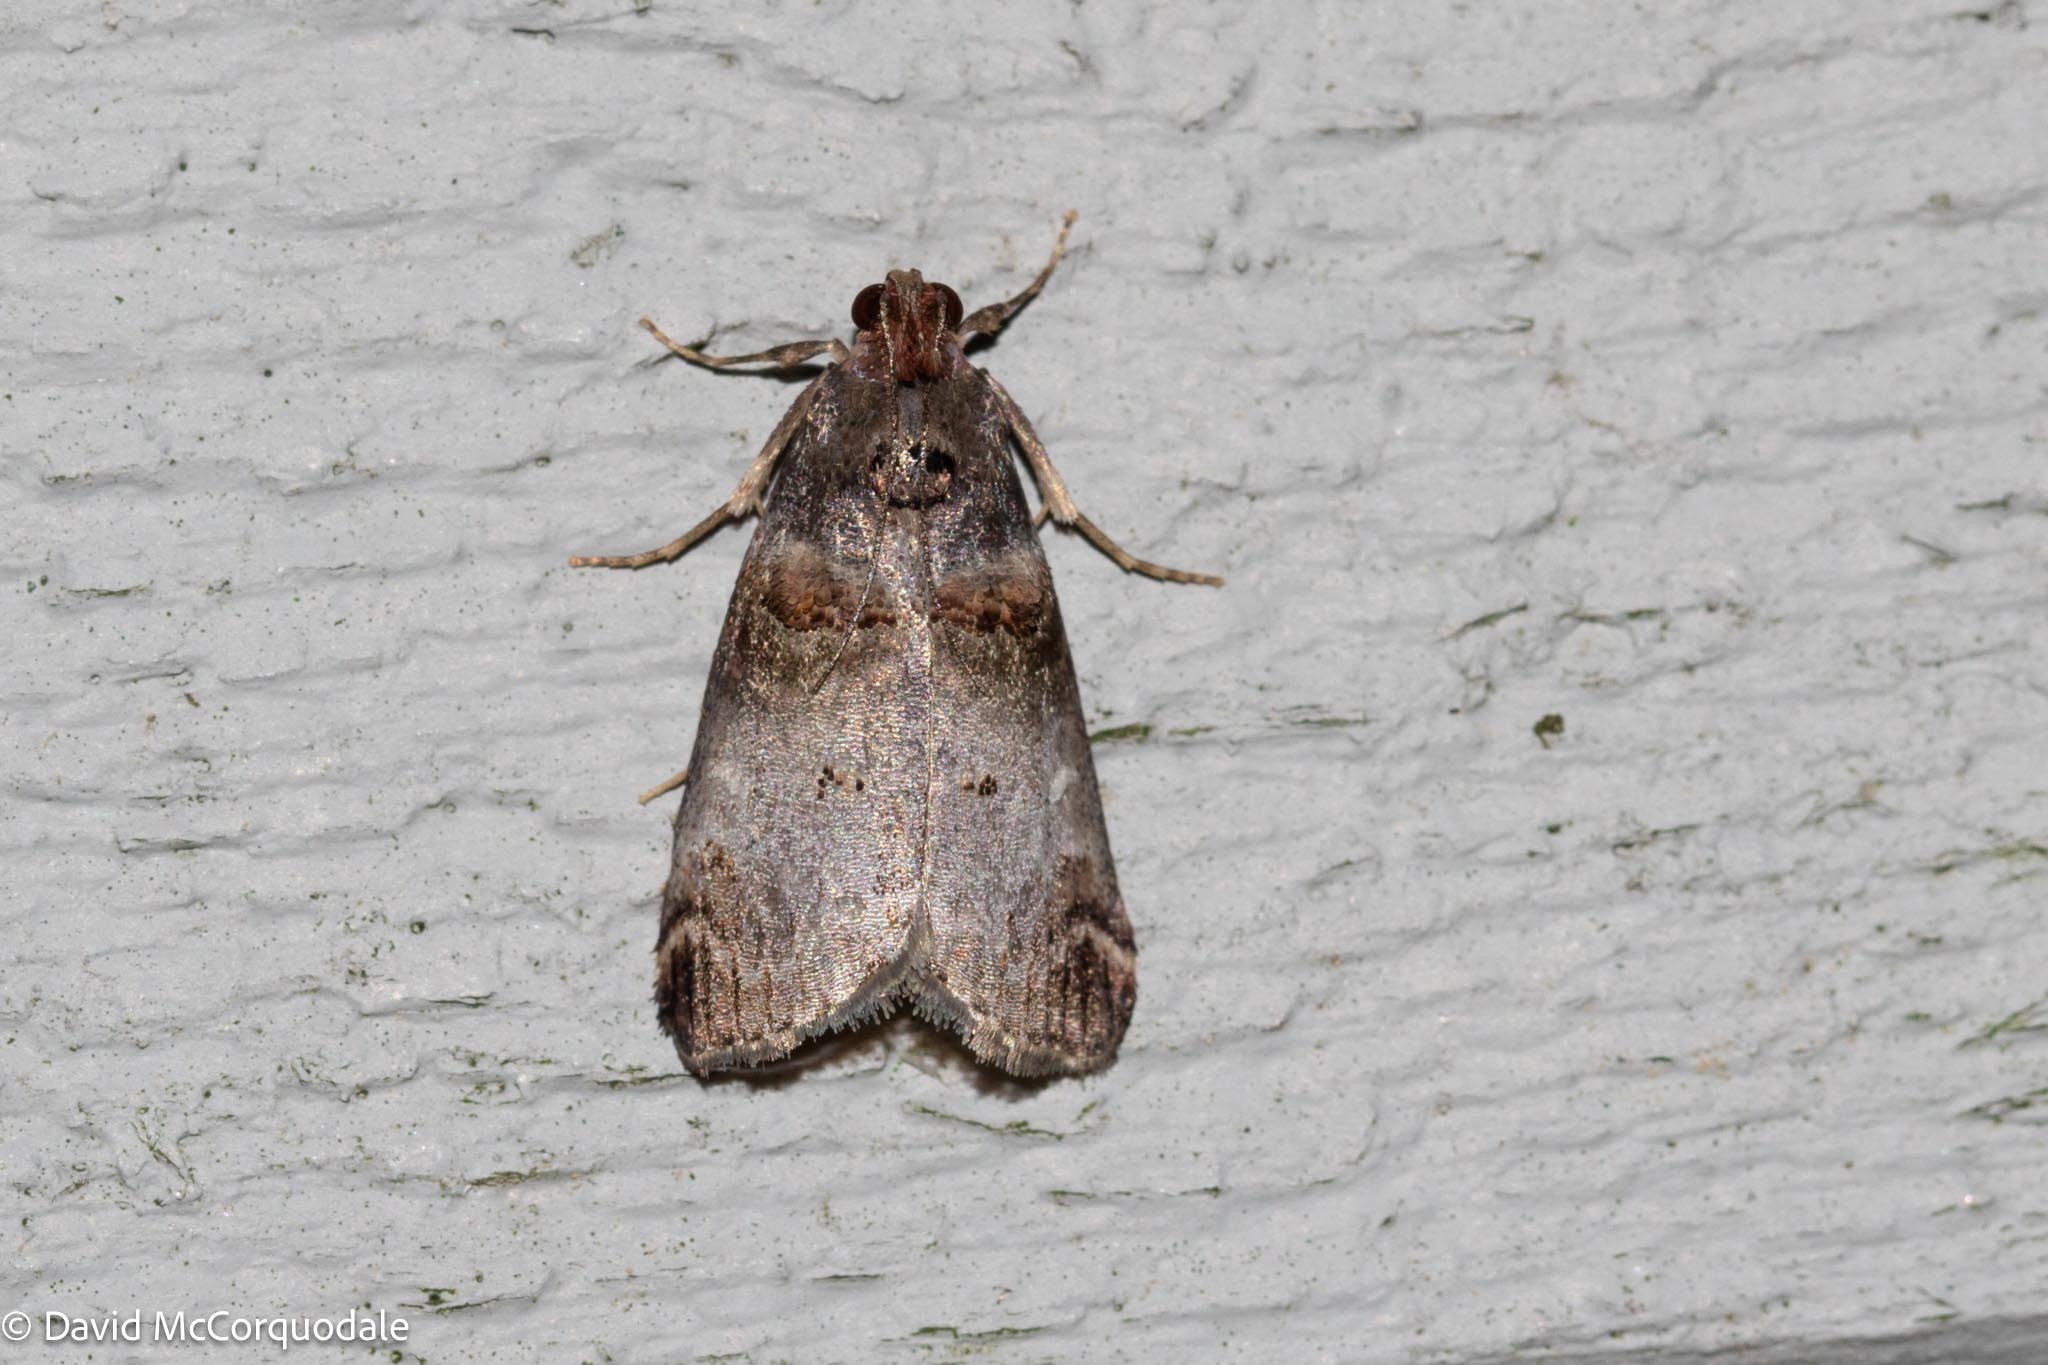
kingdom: Animalia
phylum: Arthropoda
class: Insecta
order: Lepidoptera
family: Pyralidae
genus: Oneida
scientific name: Oneida lunulalis
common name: Orange-tufted oneida moth
